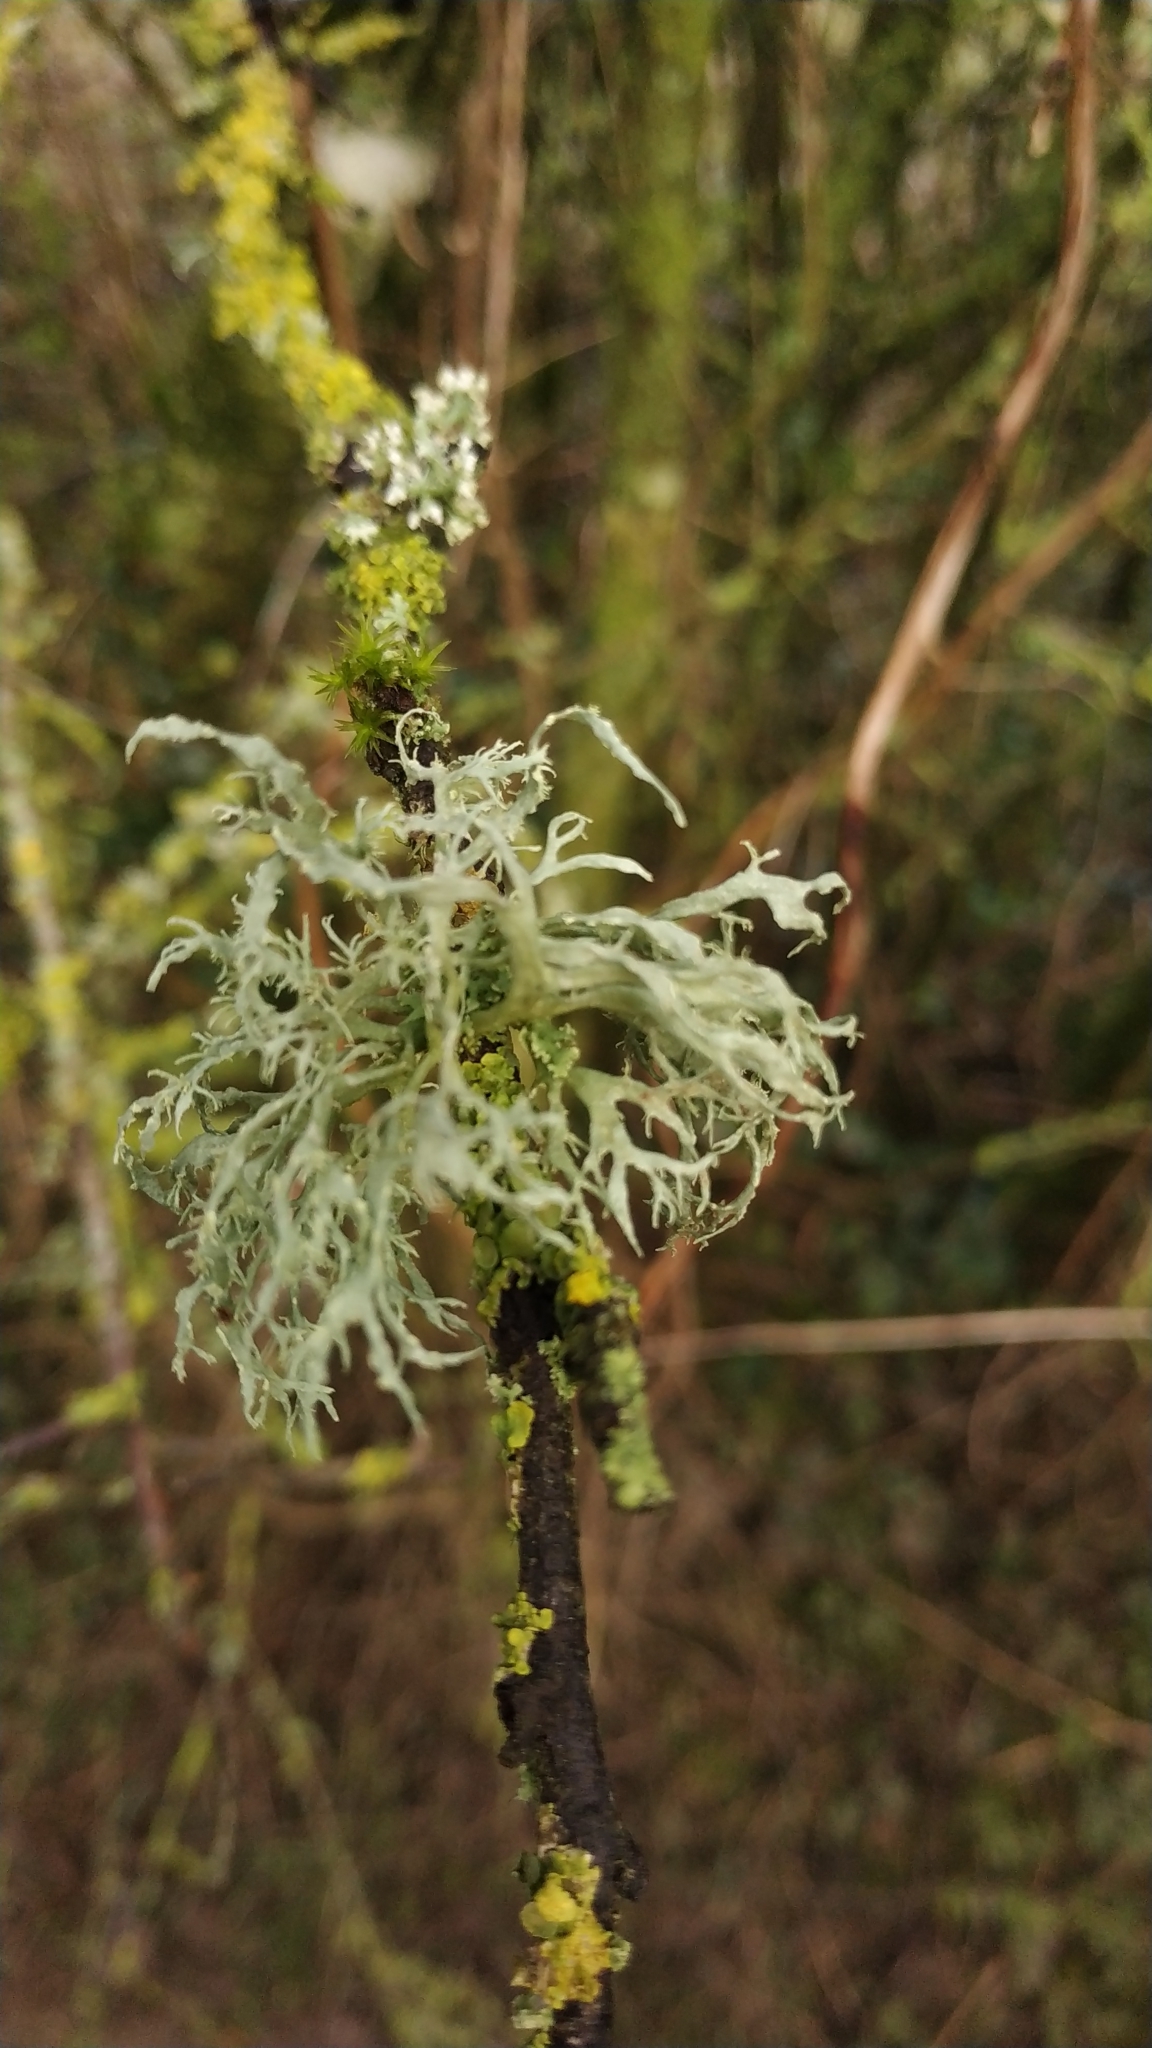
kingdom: Fungi
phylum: Ascomycota
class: Lecanoromycetes
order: Lecanorales
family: Ramalinaceae
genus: Ramalina
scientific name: Ramalina farinacea
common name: Farinose cartilage lichen
